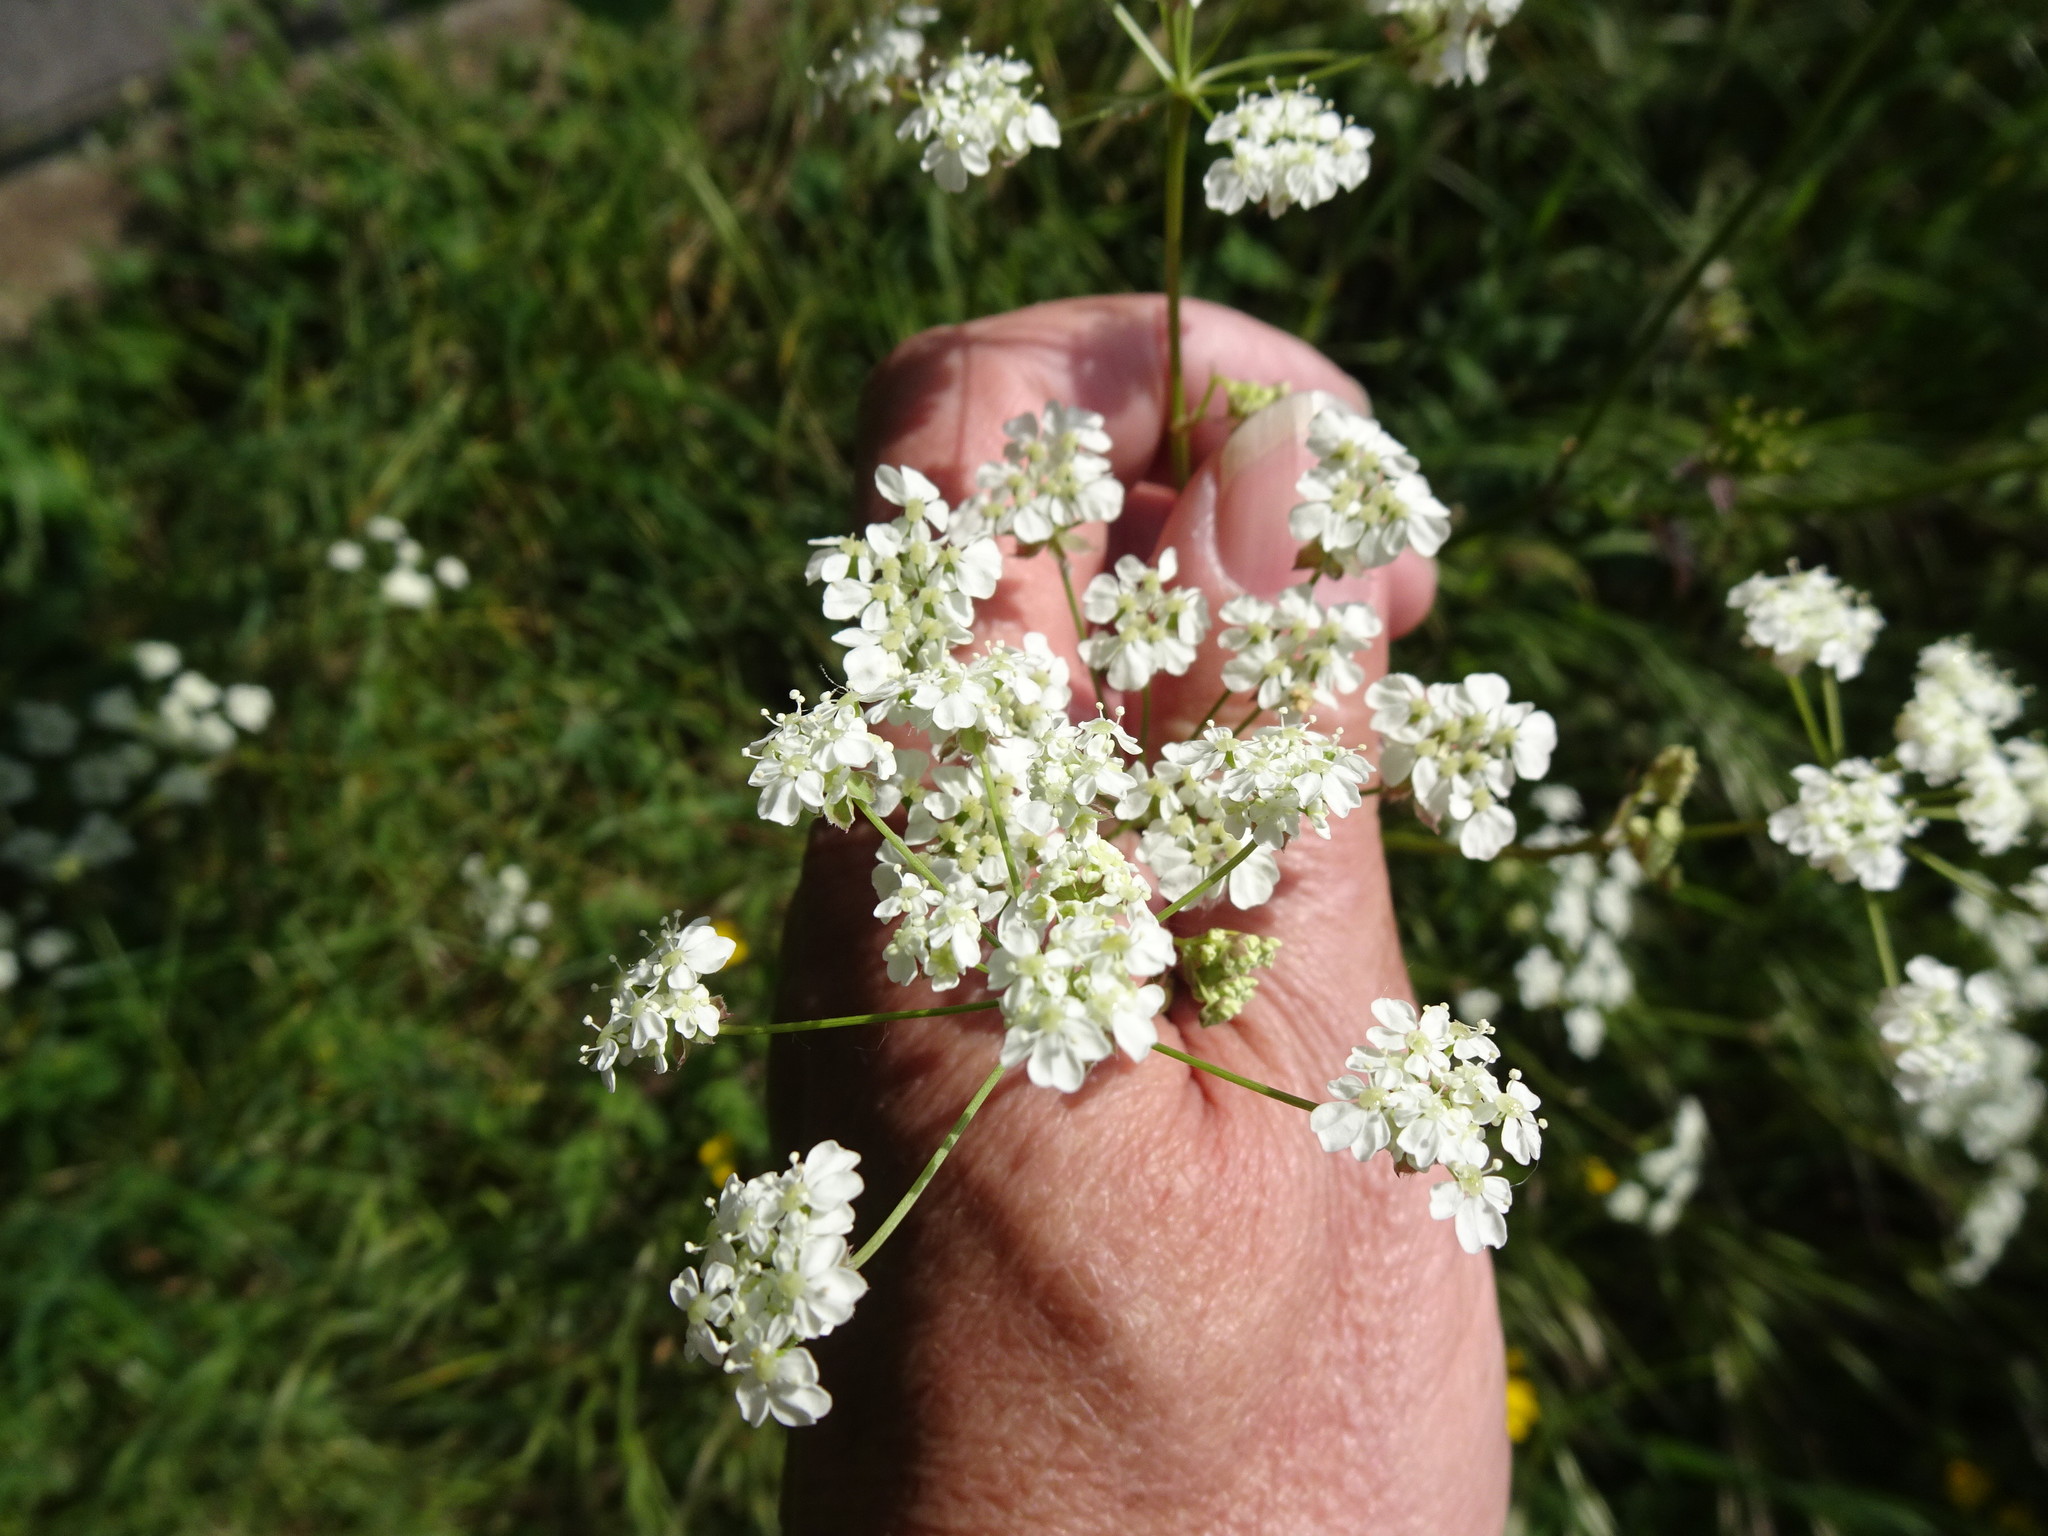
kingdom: Plantae
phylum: Tracheophyta
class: Magnoliopsida
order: Apiales
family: Apiaceae
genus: Anthriscus
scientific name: Anthriscus sylvestris
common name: Cow parsley
